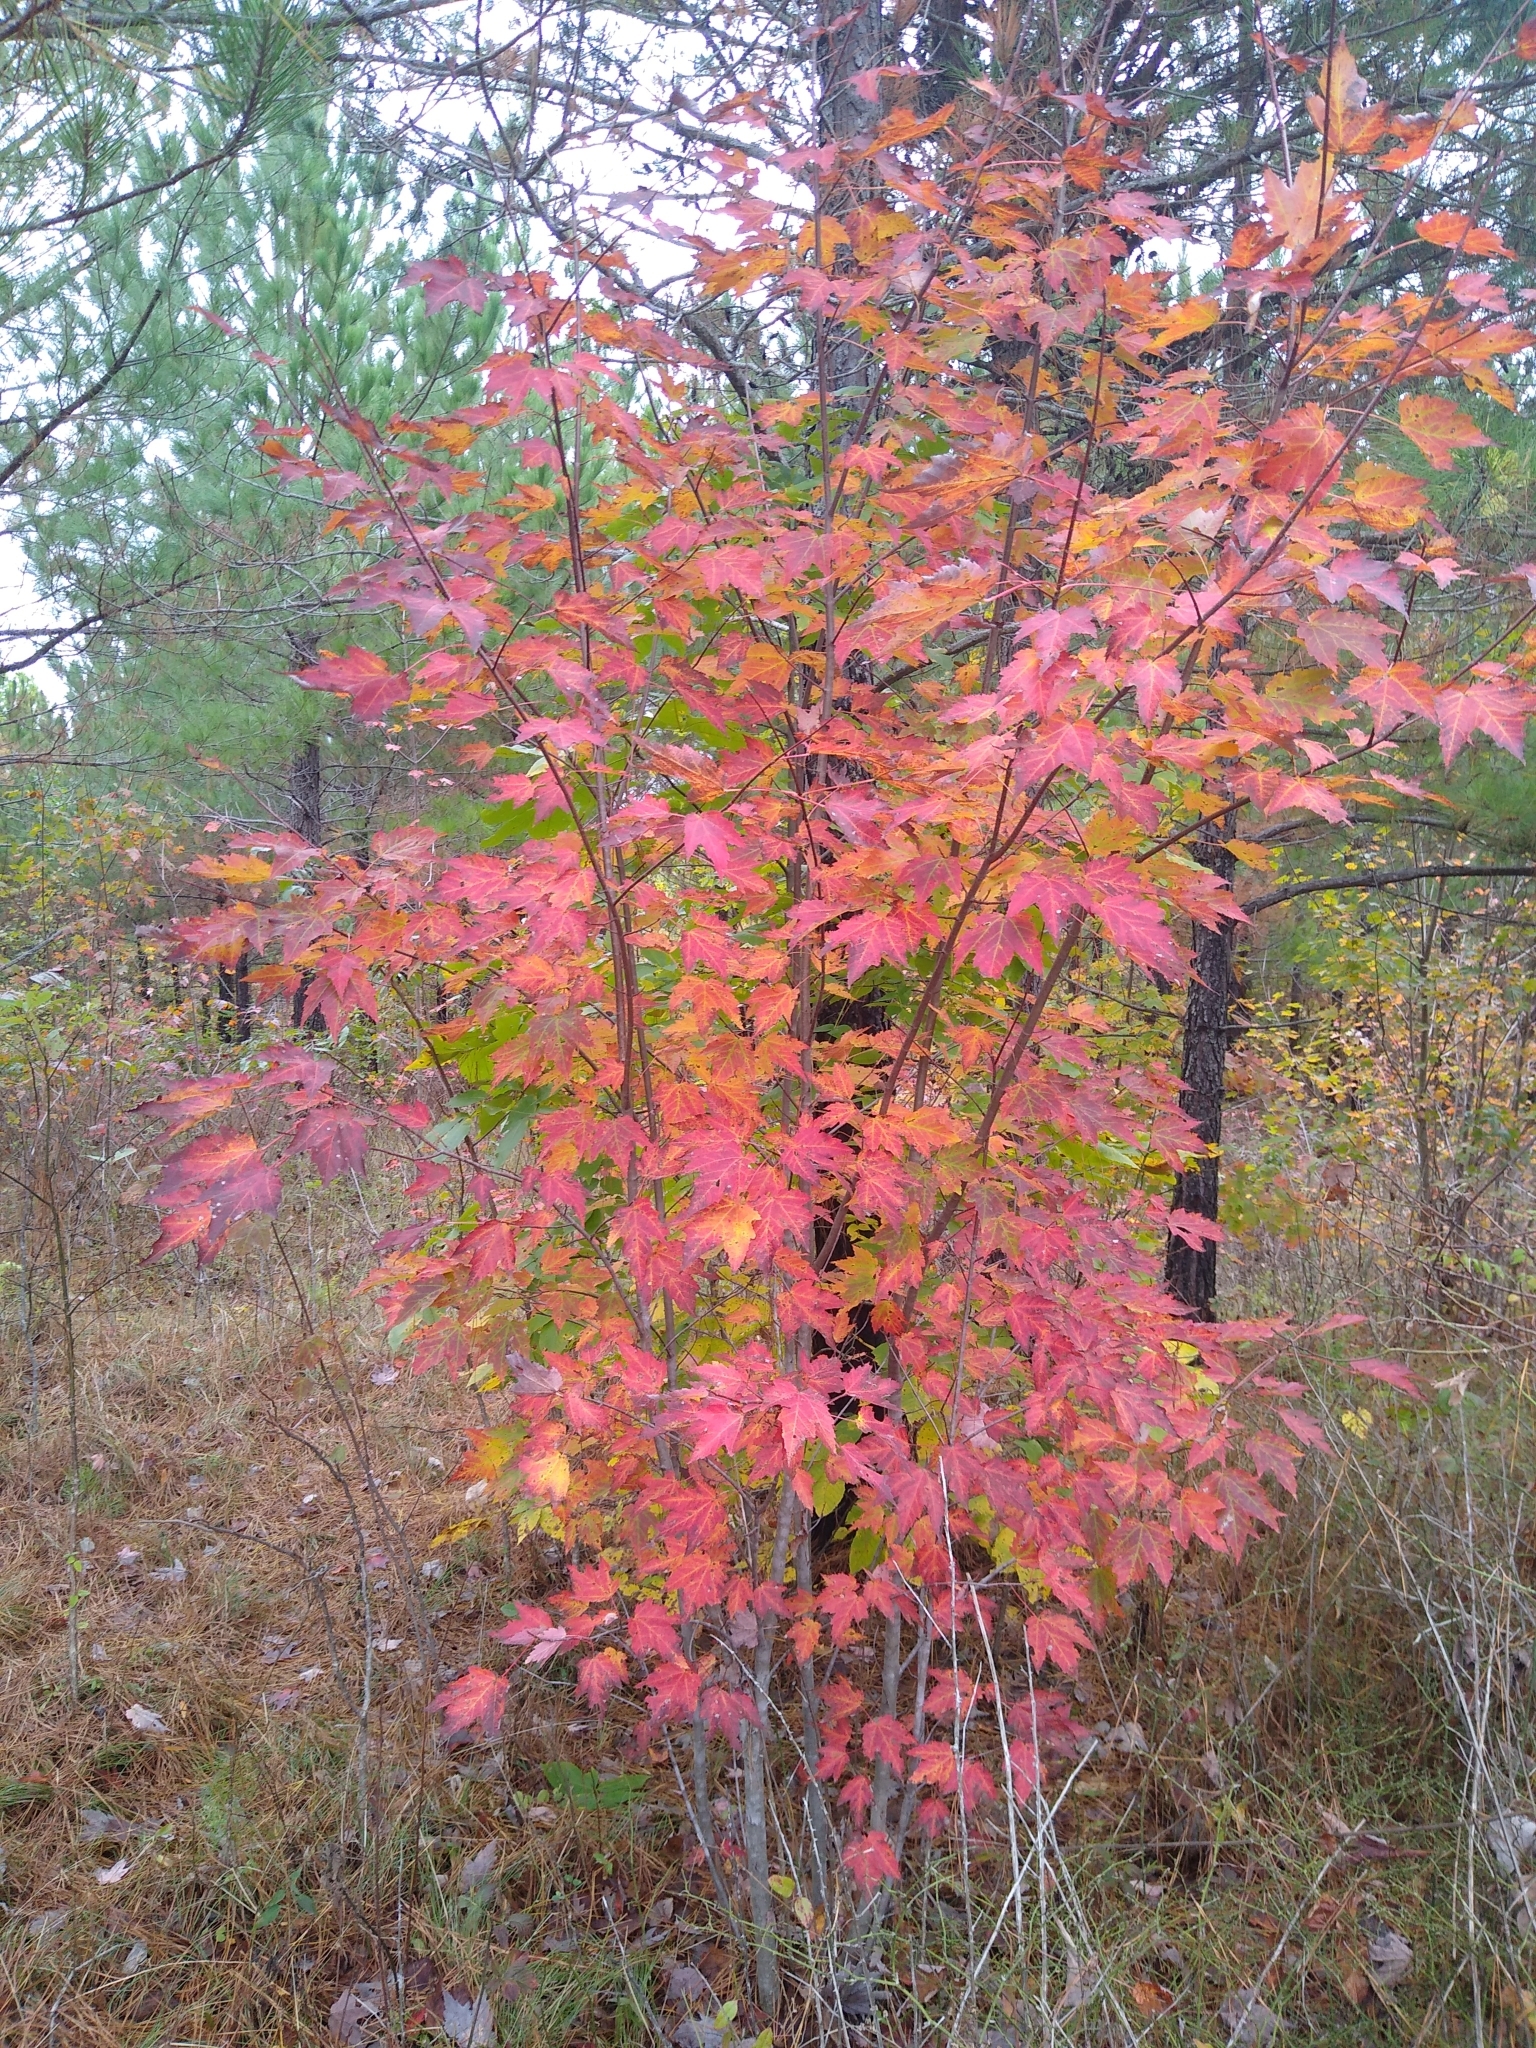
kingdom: Plantae
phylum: Tracheophyta
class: Magnoliopsida
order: Sapindales
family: Sapindaceae
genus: Acer
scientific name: Acer rubrum
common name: Red maple
